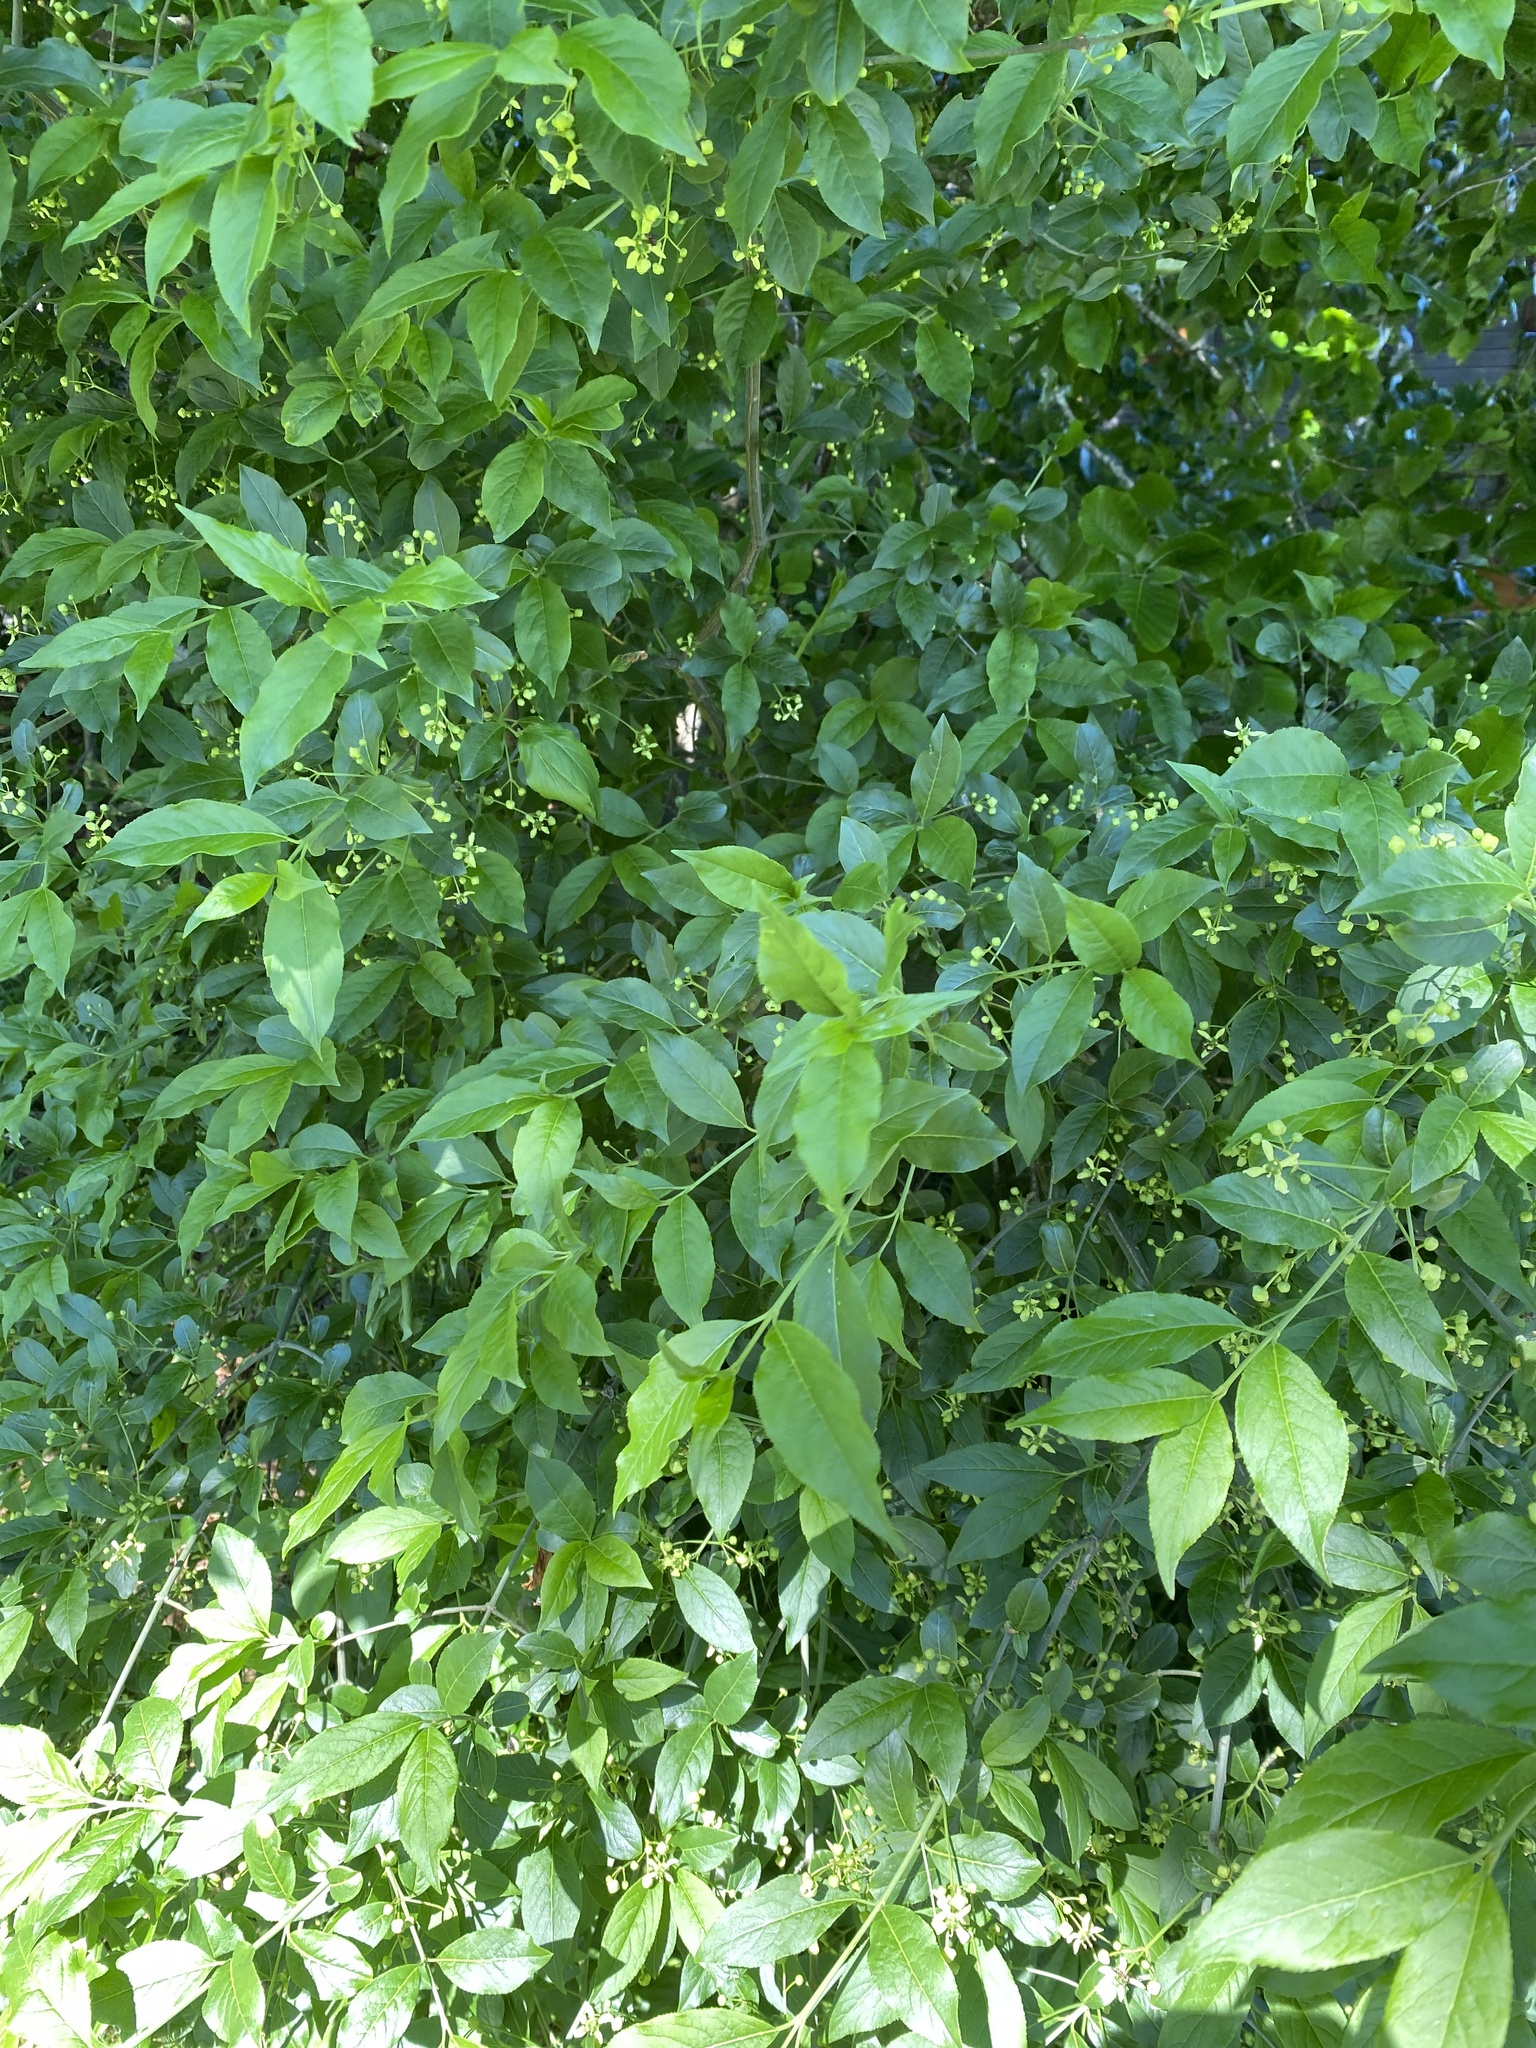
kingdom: Plantae
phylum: Tracheophyta
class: Magnoliopsida
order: Celastrales
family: Celastraceae
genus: Euonymus
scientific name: Euonymus europaeus
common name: Spindle
